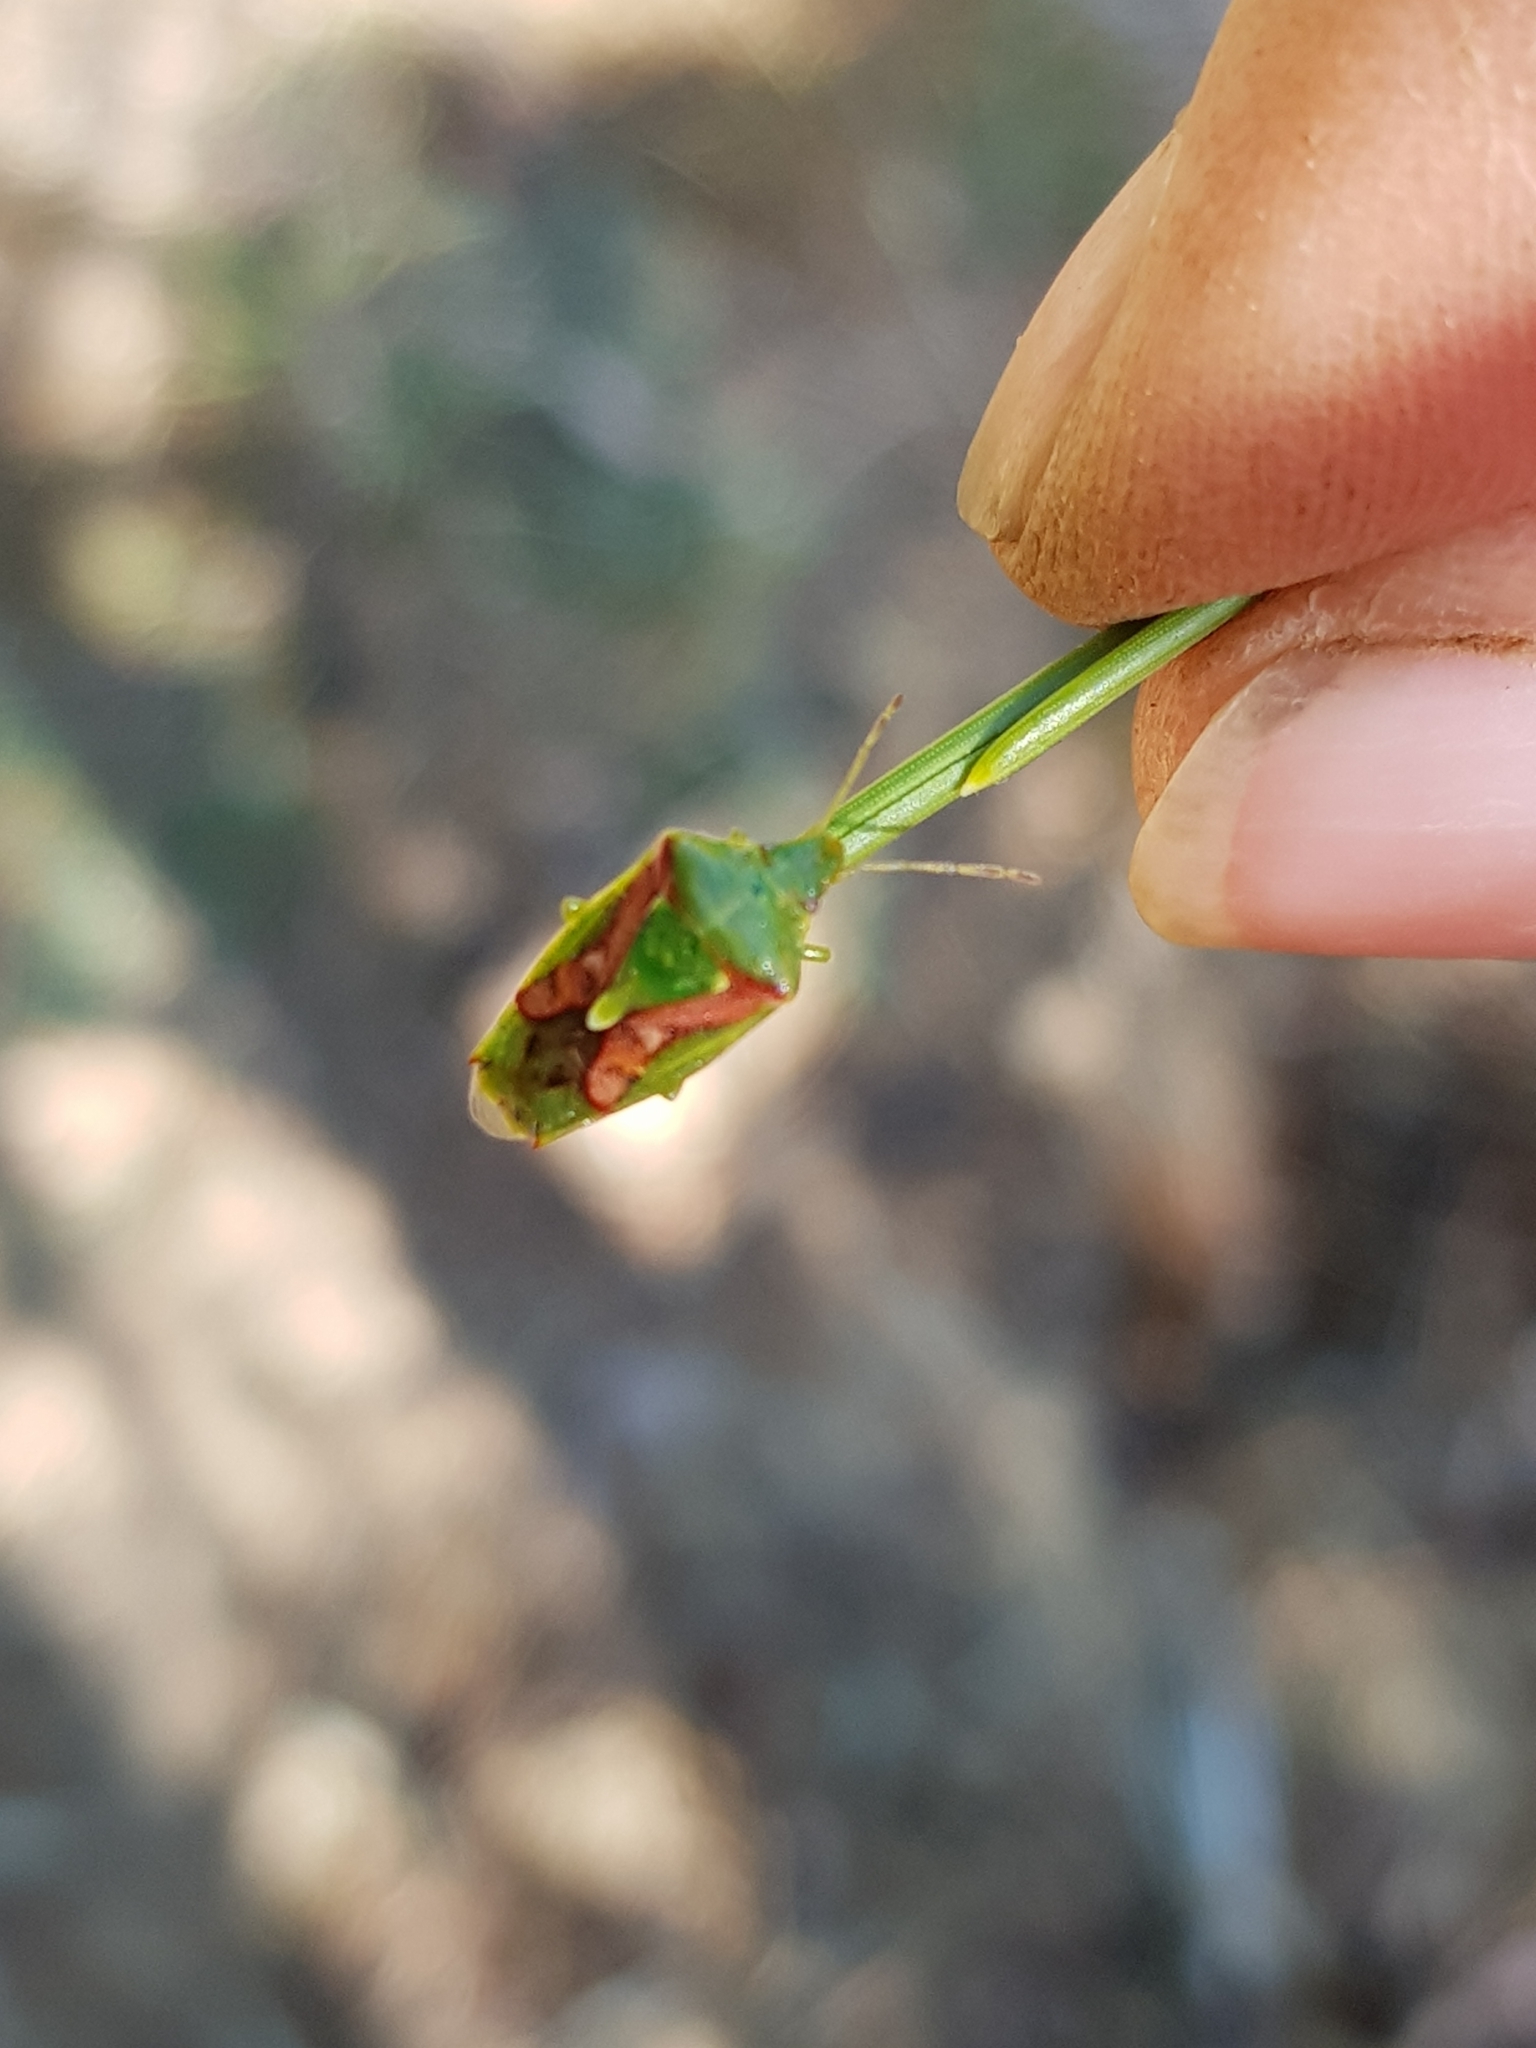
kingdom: Animalia
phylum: Arthropoda
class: Insecta
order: Hemiptera
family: Acanthosomatidae
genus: Cyphostethus
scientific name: Cyphostethus tristriatus
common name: Juniper shieldbug
